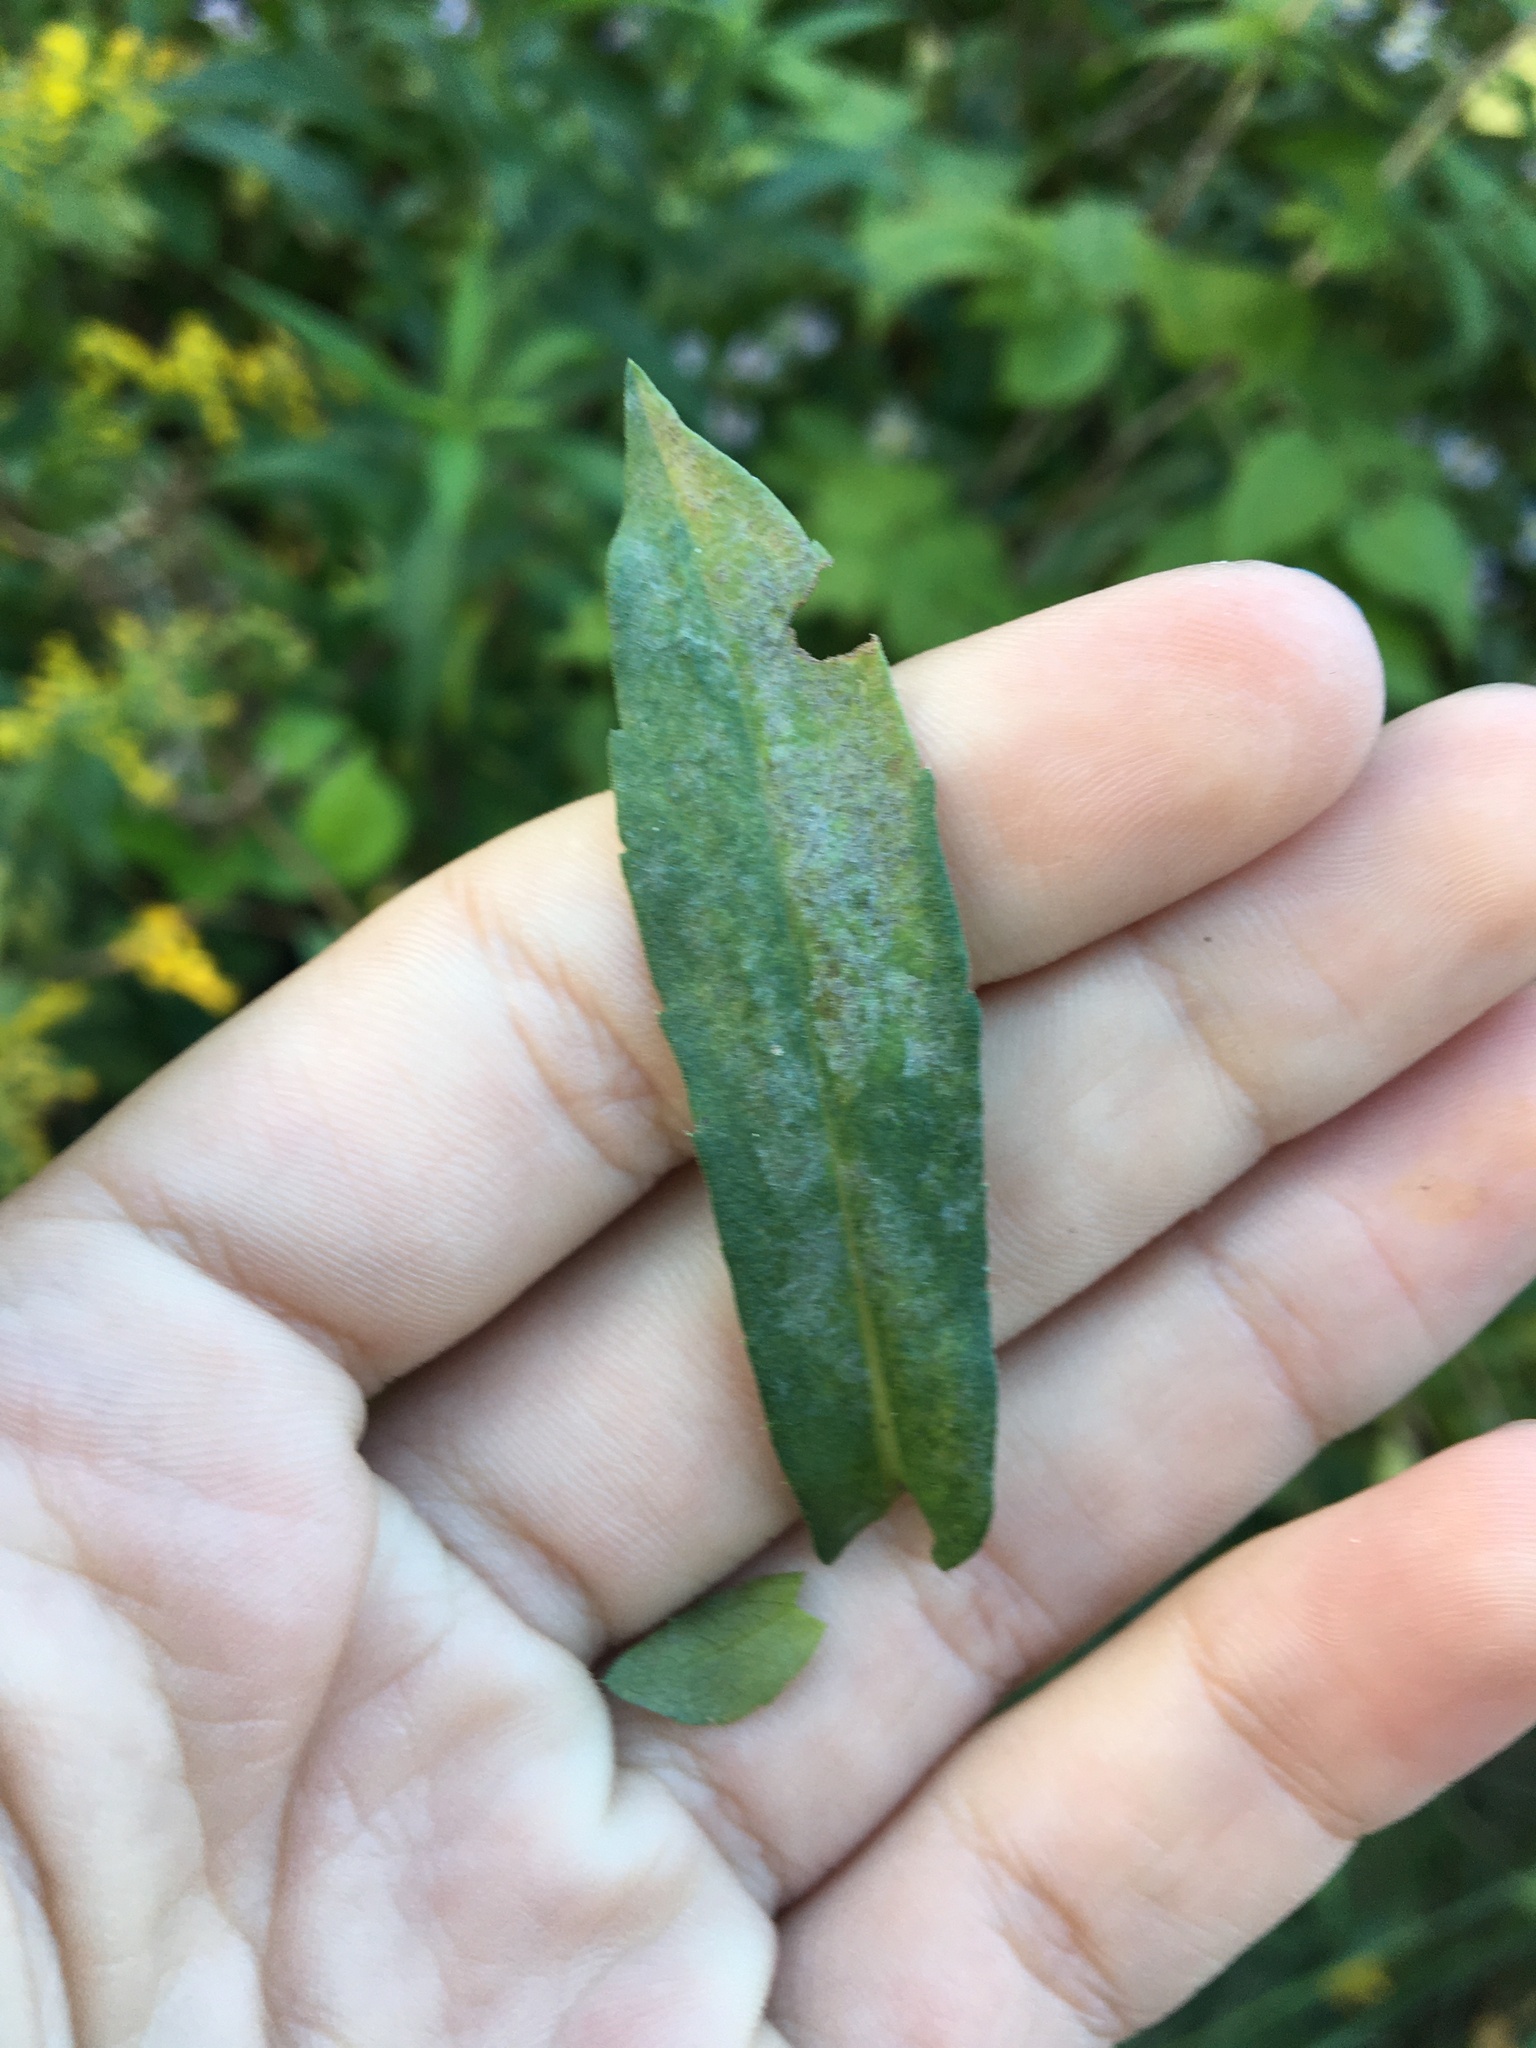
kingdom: Fungi
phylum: Ascomycota
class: Leotiomycetes
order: Helotiales
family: Erysiphaceae
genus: Golovinomyces
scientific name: Golovinomyces asterum
